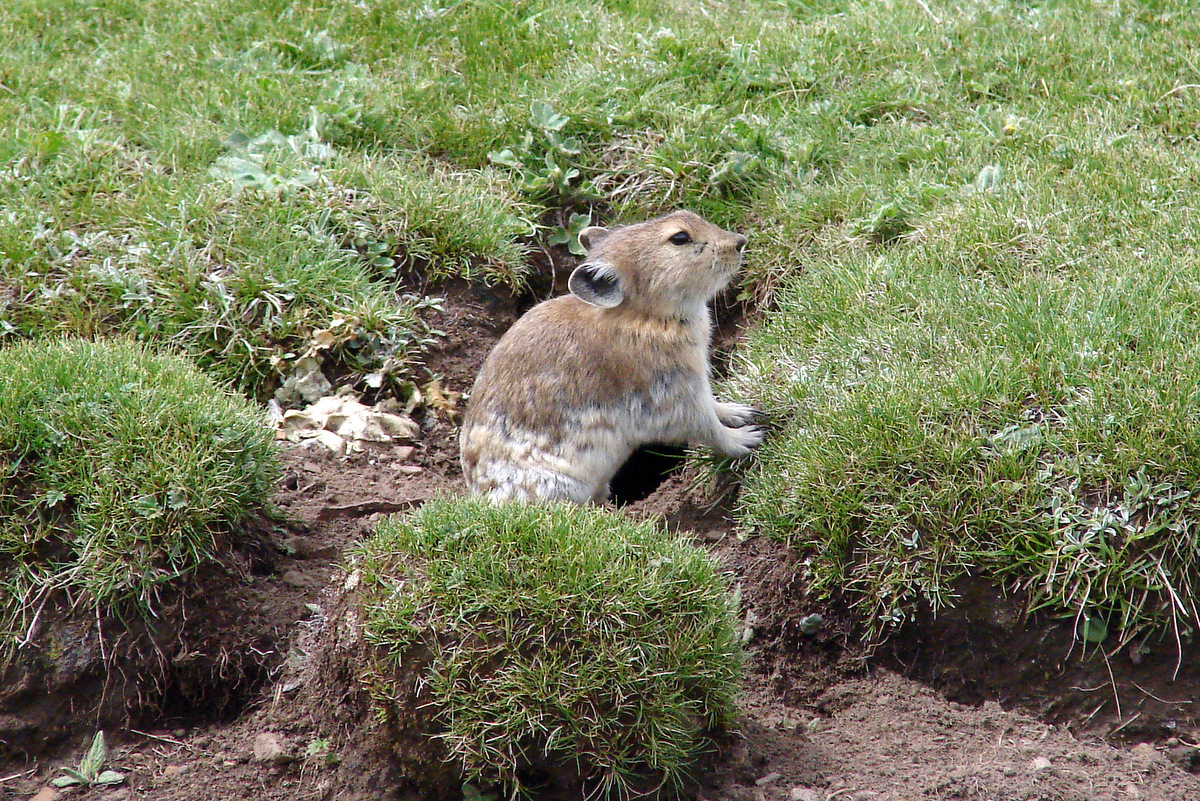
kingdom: Animalia
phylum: Chordata
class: Mammalia
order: Lagomorpha
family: Ochotonidae
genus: Ochotona
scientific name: Ochotona curzoniae
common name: Plateau pika
